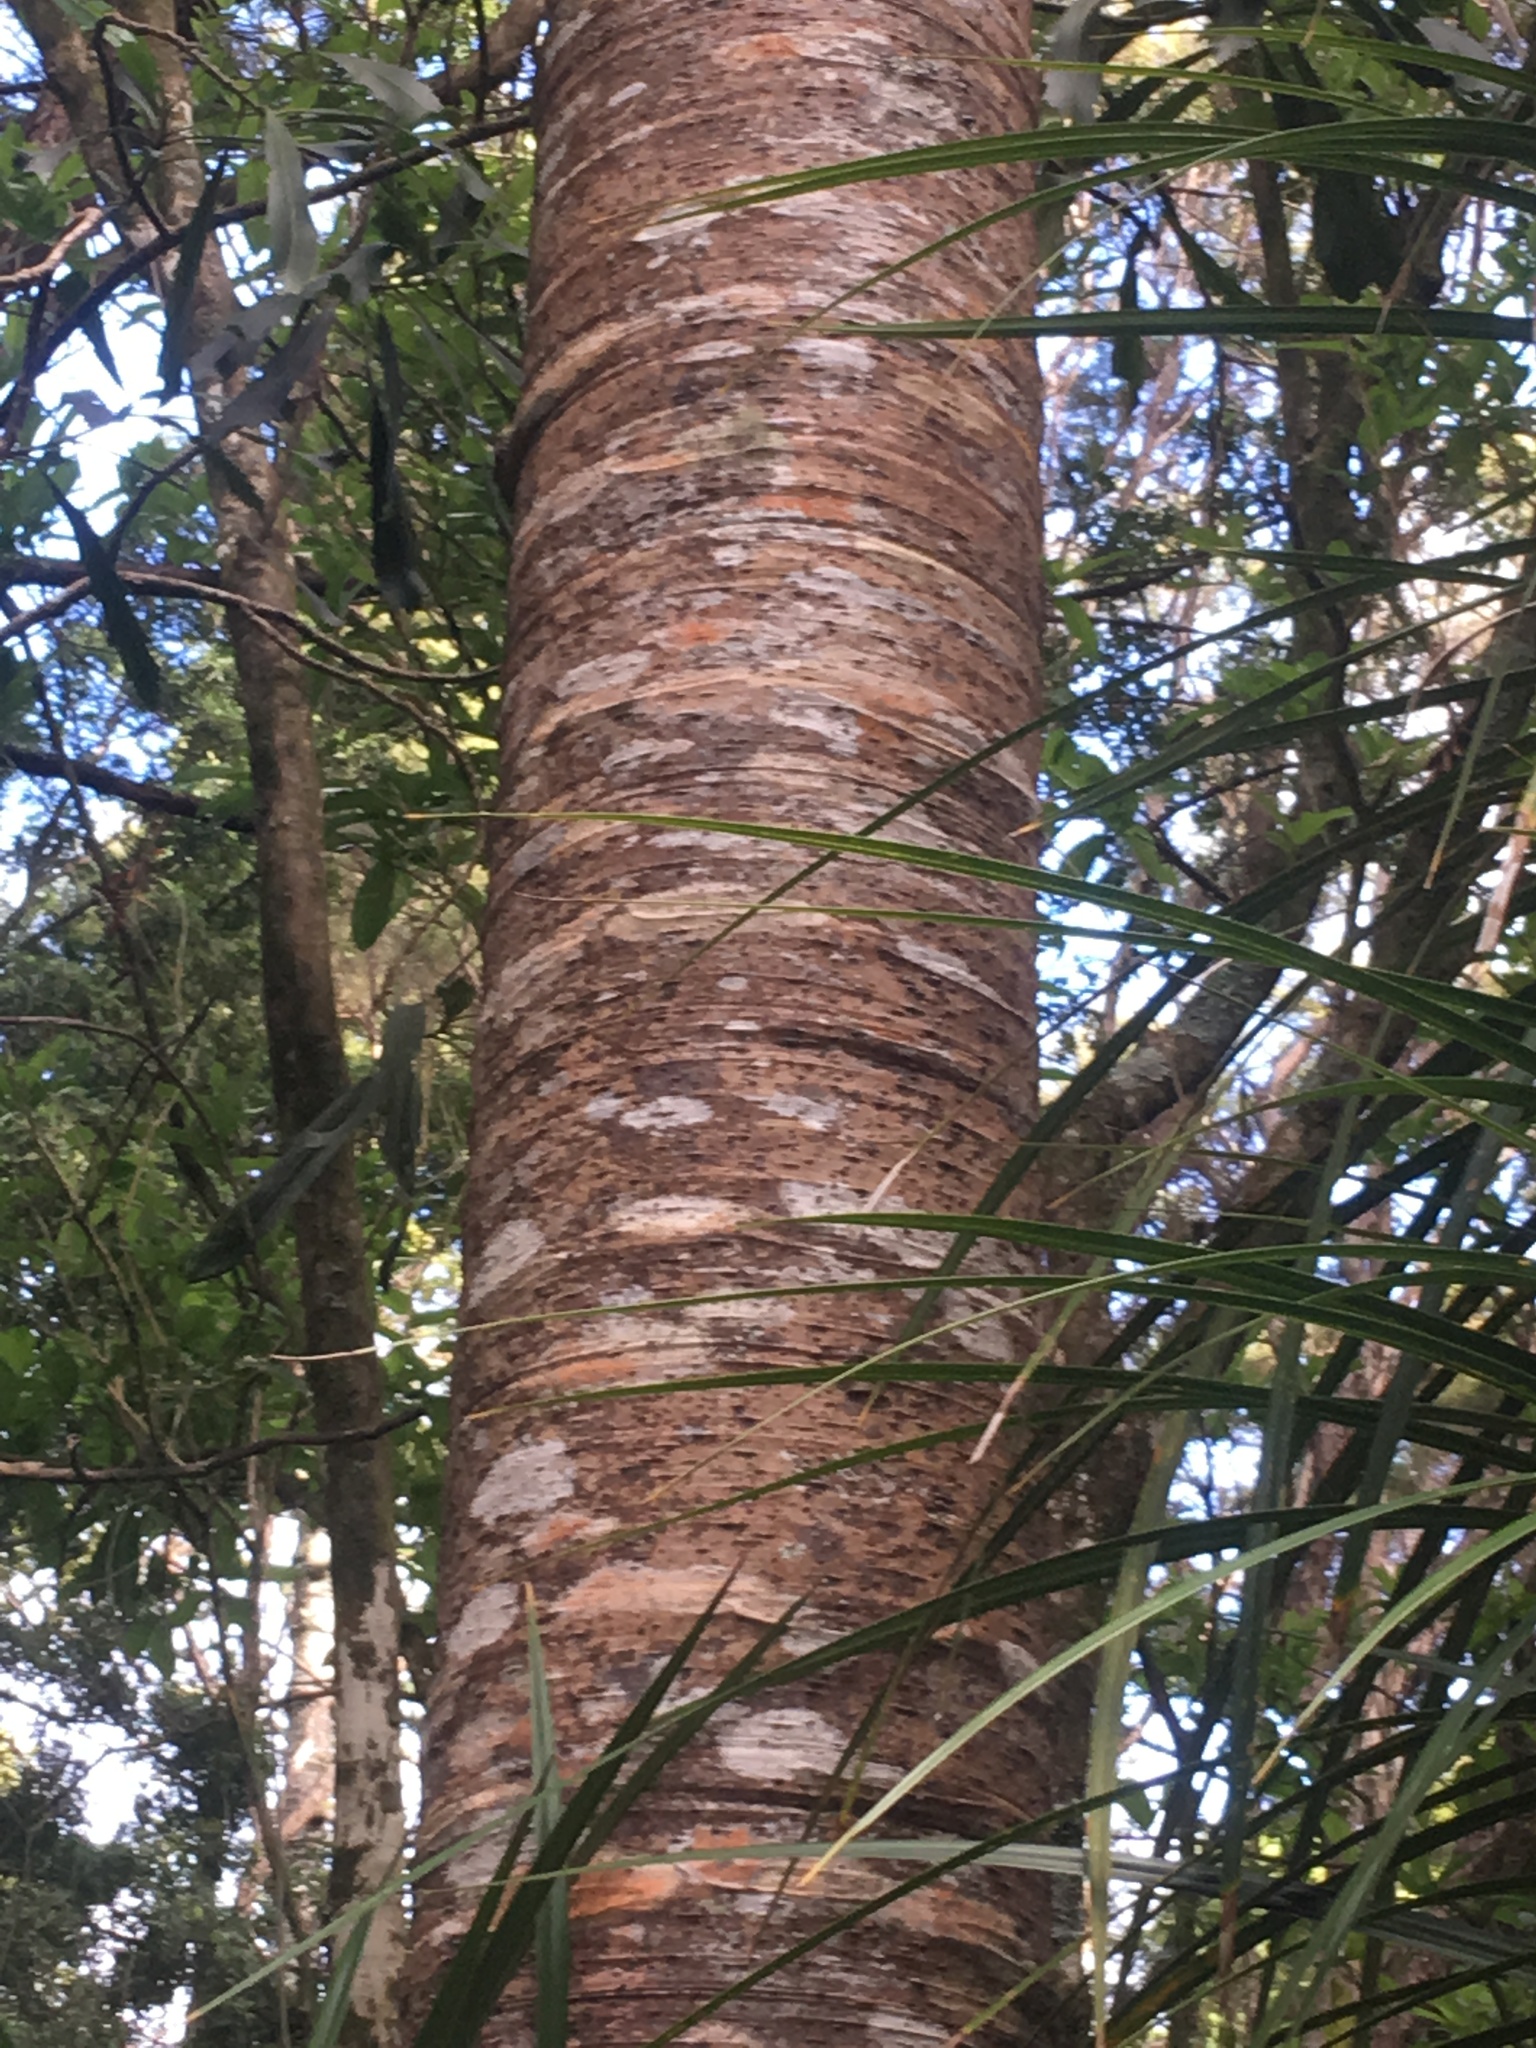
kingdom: Plantae
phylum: Tracheophyta
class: Pinopsida
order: Pinales
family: Araucariaceae
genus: Agathis
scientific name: Agathis australis
